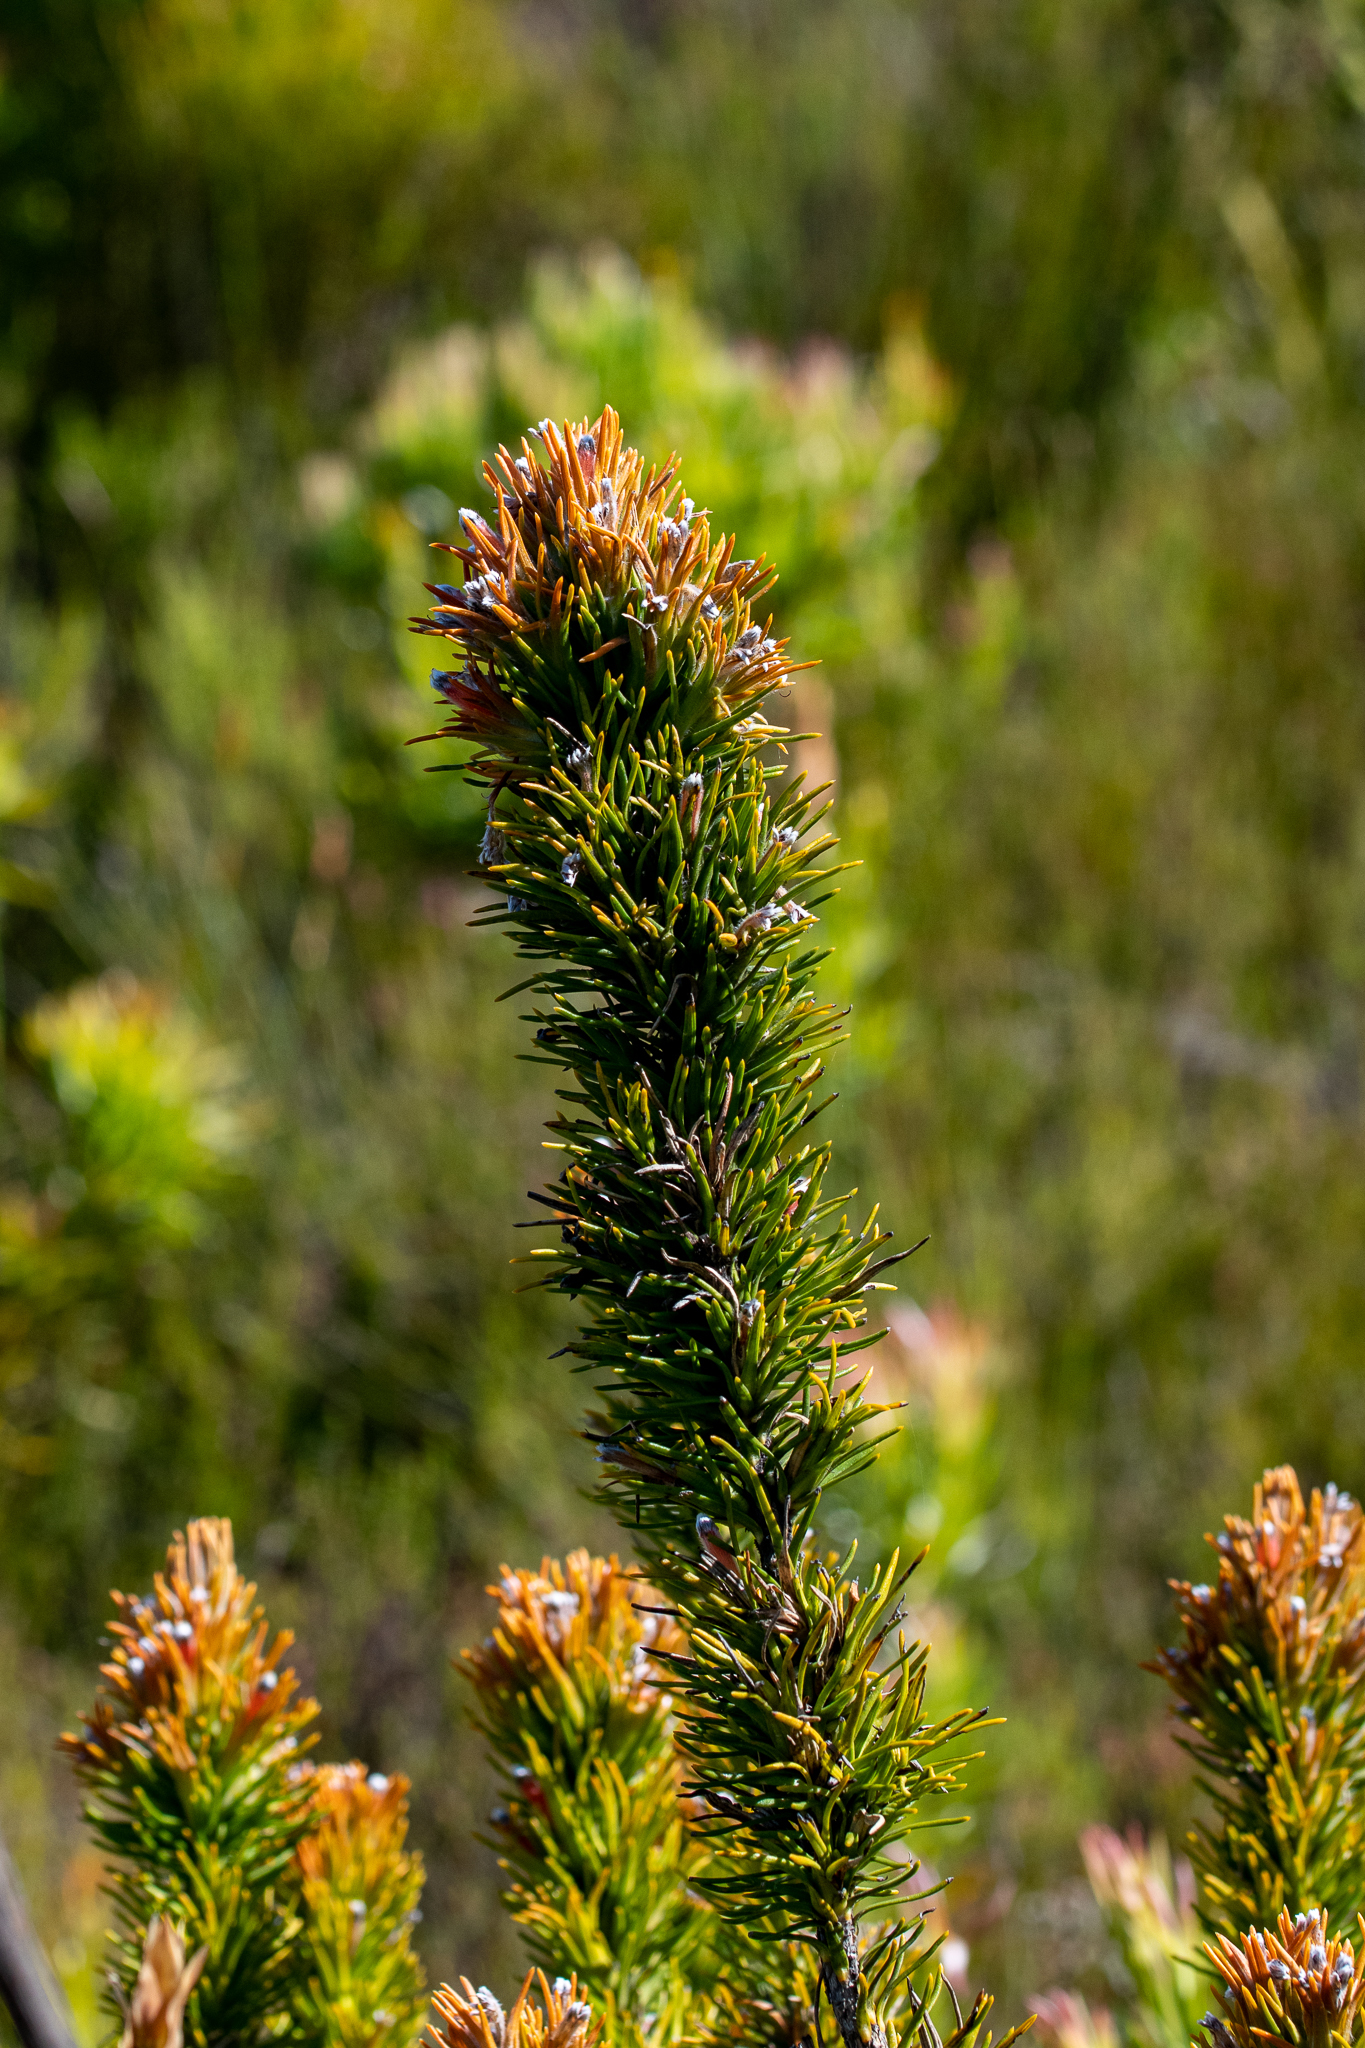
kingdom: Plantae
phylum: Tracheophyta
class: Magnoliopsida
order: Lamiales
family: Stilbaceae
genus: Retzia
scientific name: Retzia capensis
